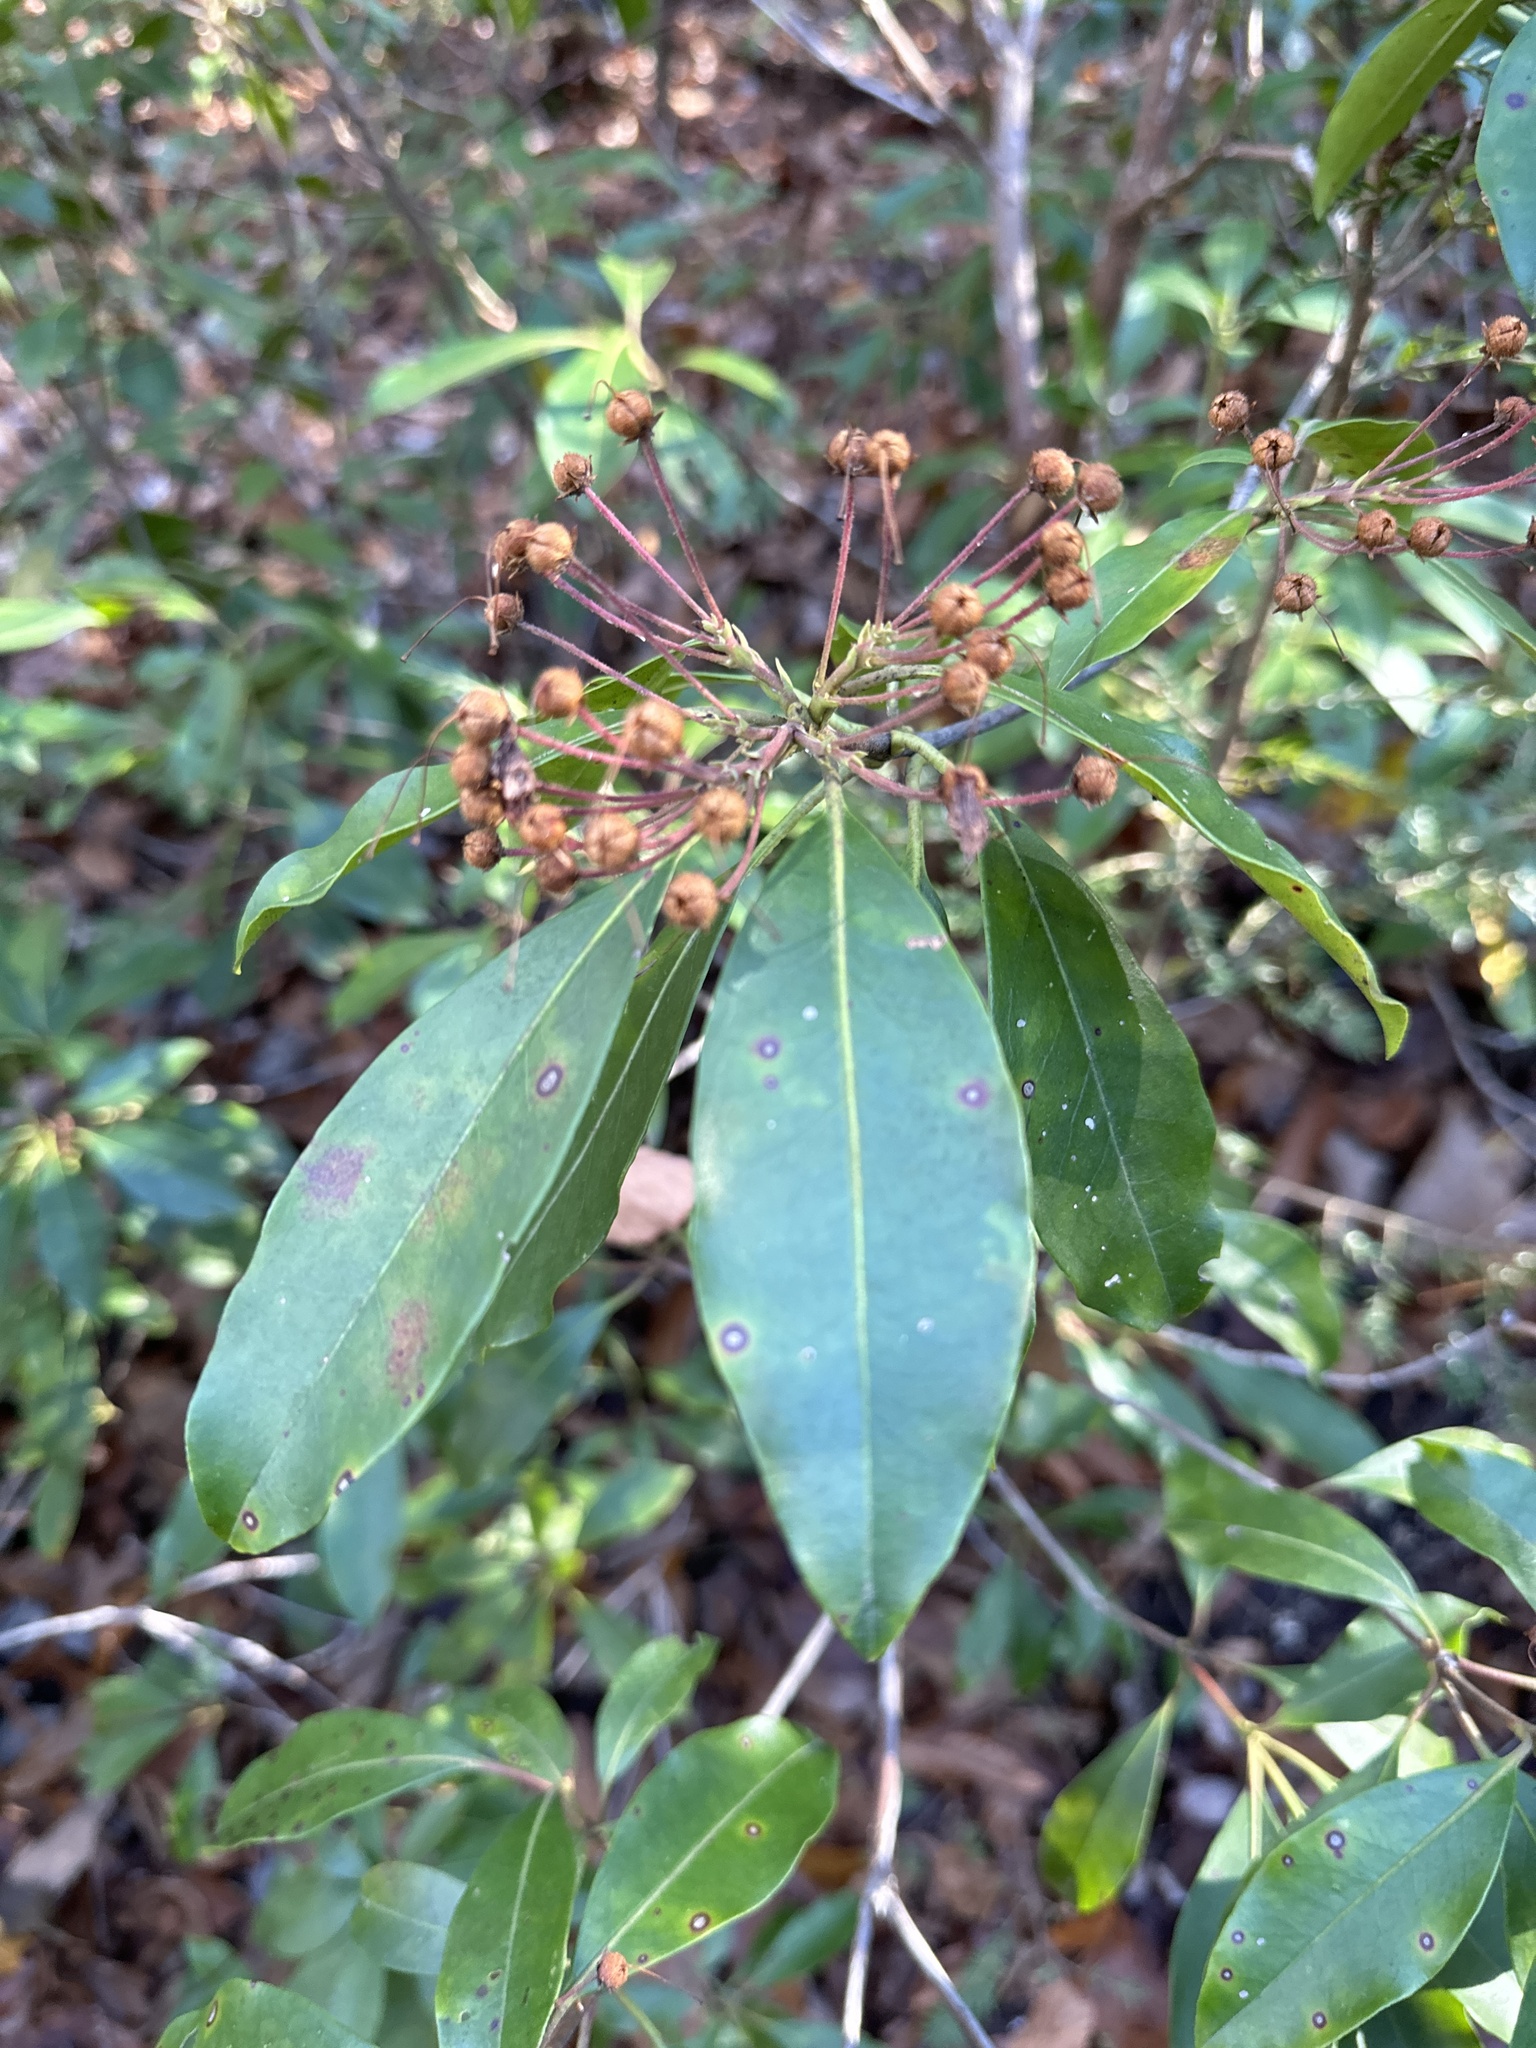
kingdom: Plantae
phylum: Tracheophyta
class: Magnoliopsida
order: Ericales
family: Ericaceae
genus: Kalmia
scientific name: Kalmia latifolia
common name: Mountain-laurel
